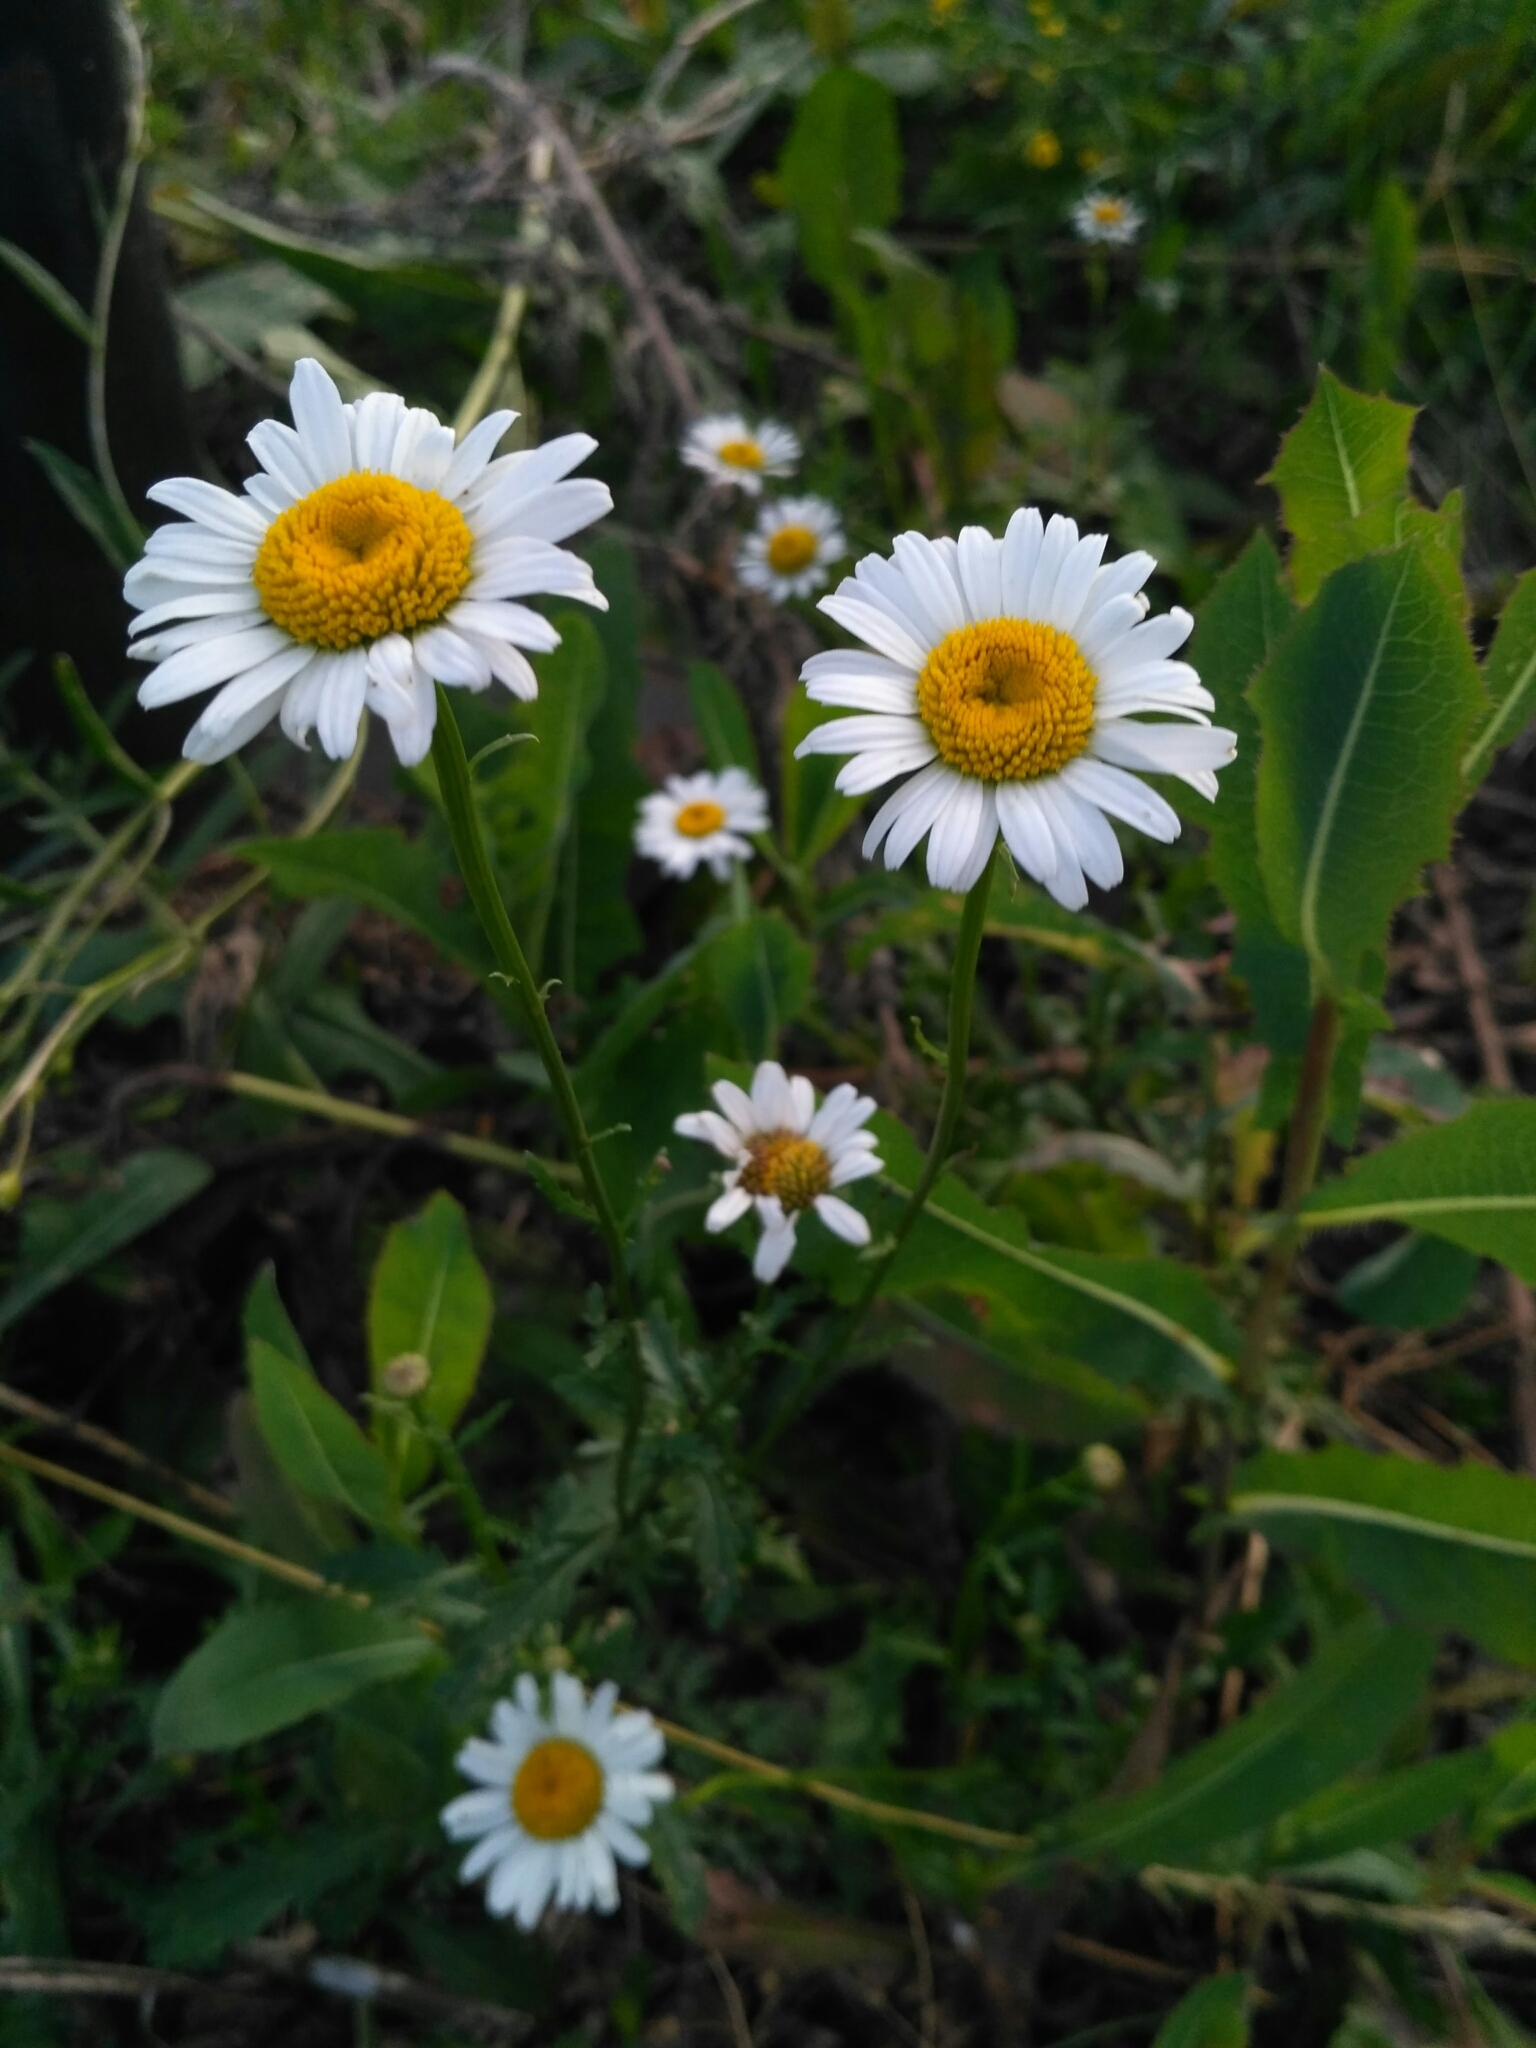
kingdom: Plantae
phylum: Tracheophyta
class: Magnoliopsida
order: Asterales
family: Asteraceae
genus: Leucanthemum
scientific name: Leucanthemum vulgare
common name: Oxeye daisy
